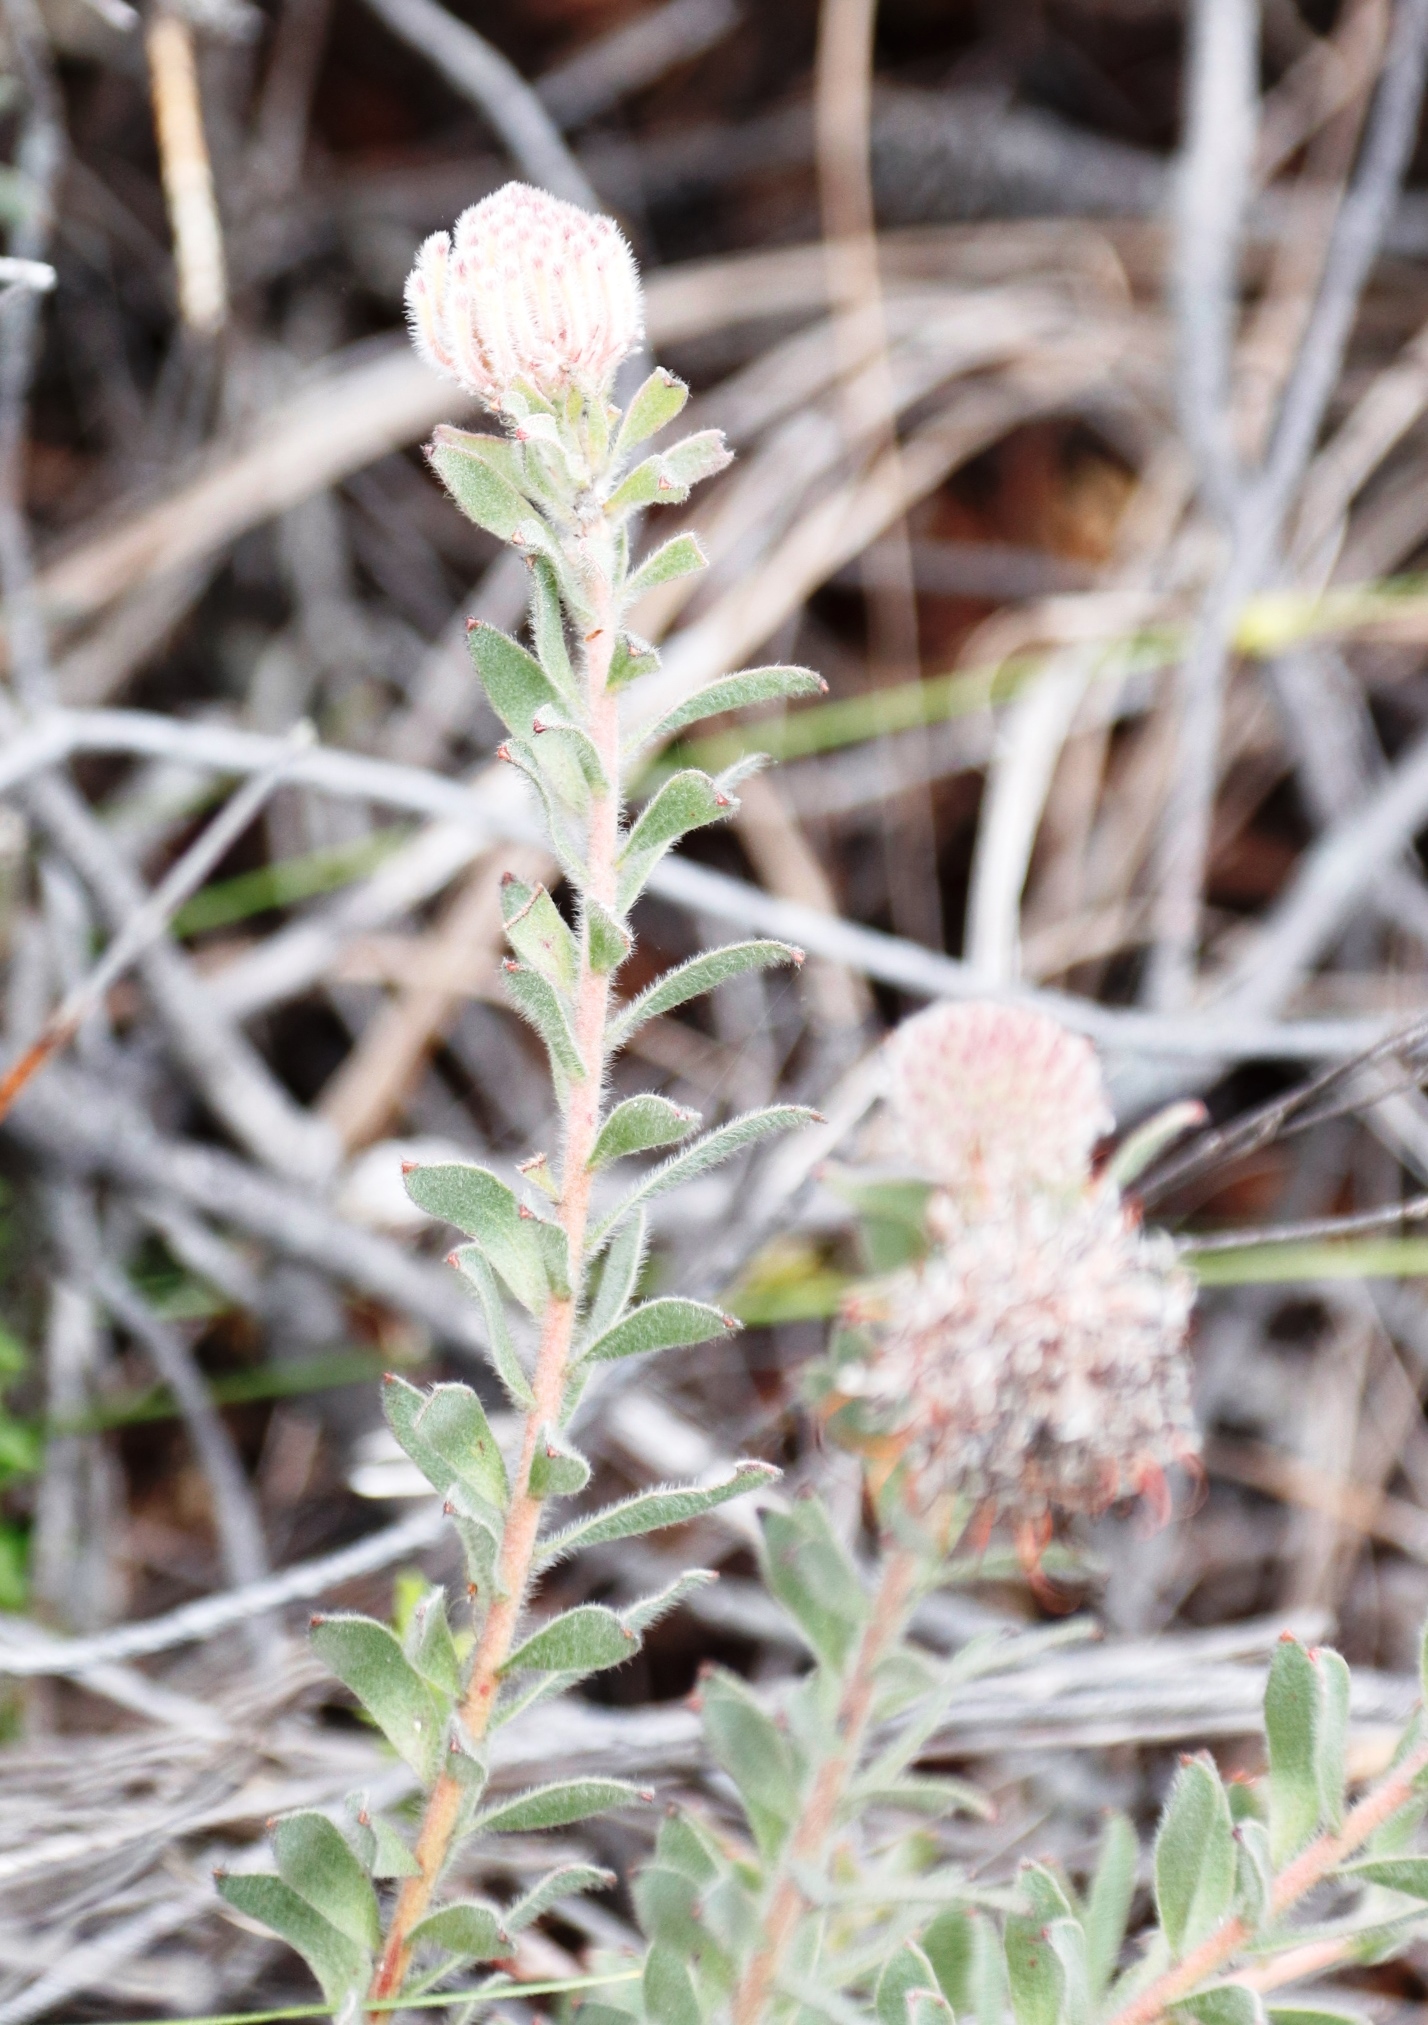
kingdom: Plantae
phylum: Tracheophyta
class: Magnoliopsida
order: Proteales
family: Proteaceae
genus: Leucospermum
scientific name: Leucospermum calligerum
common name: Arid pincushion
